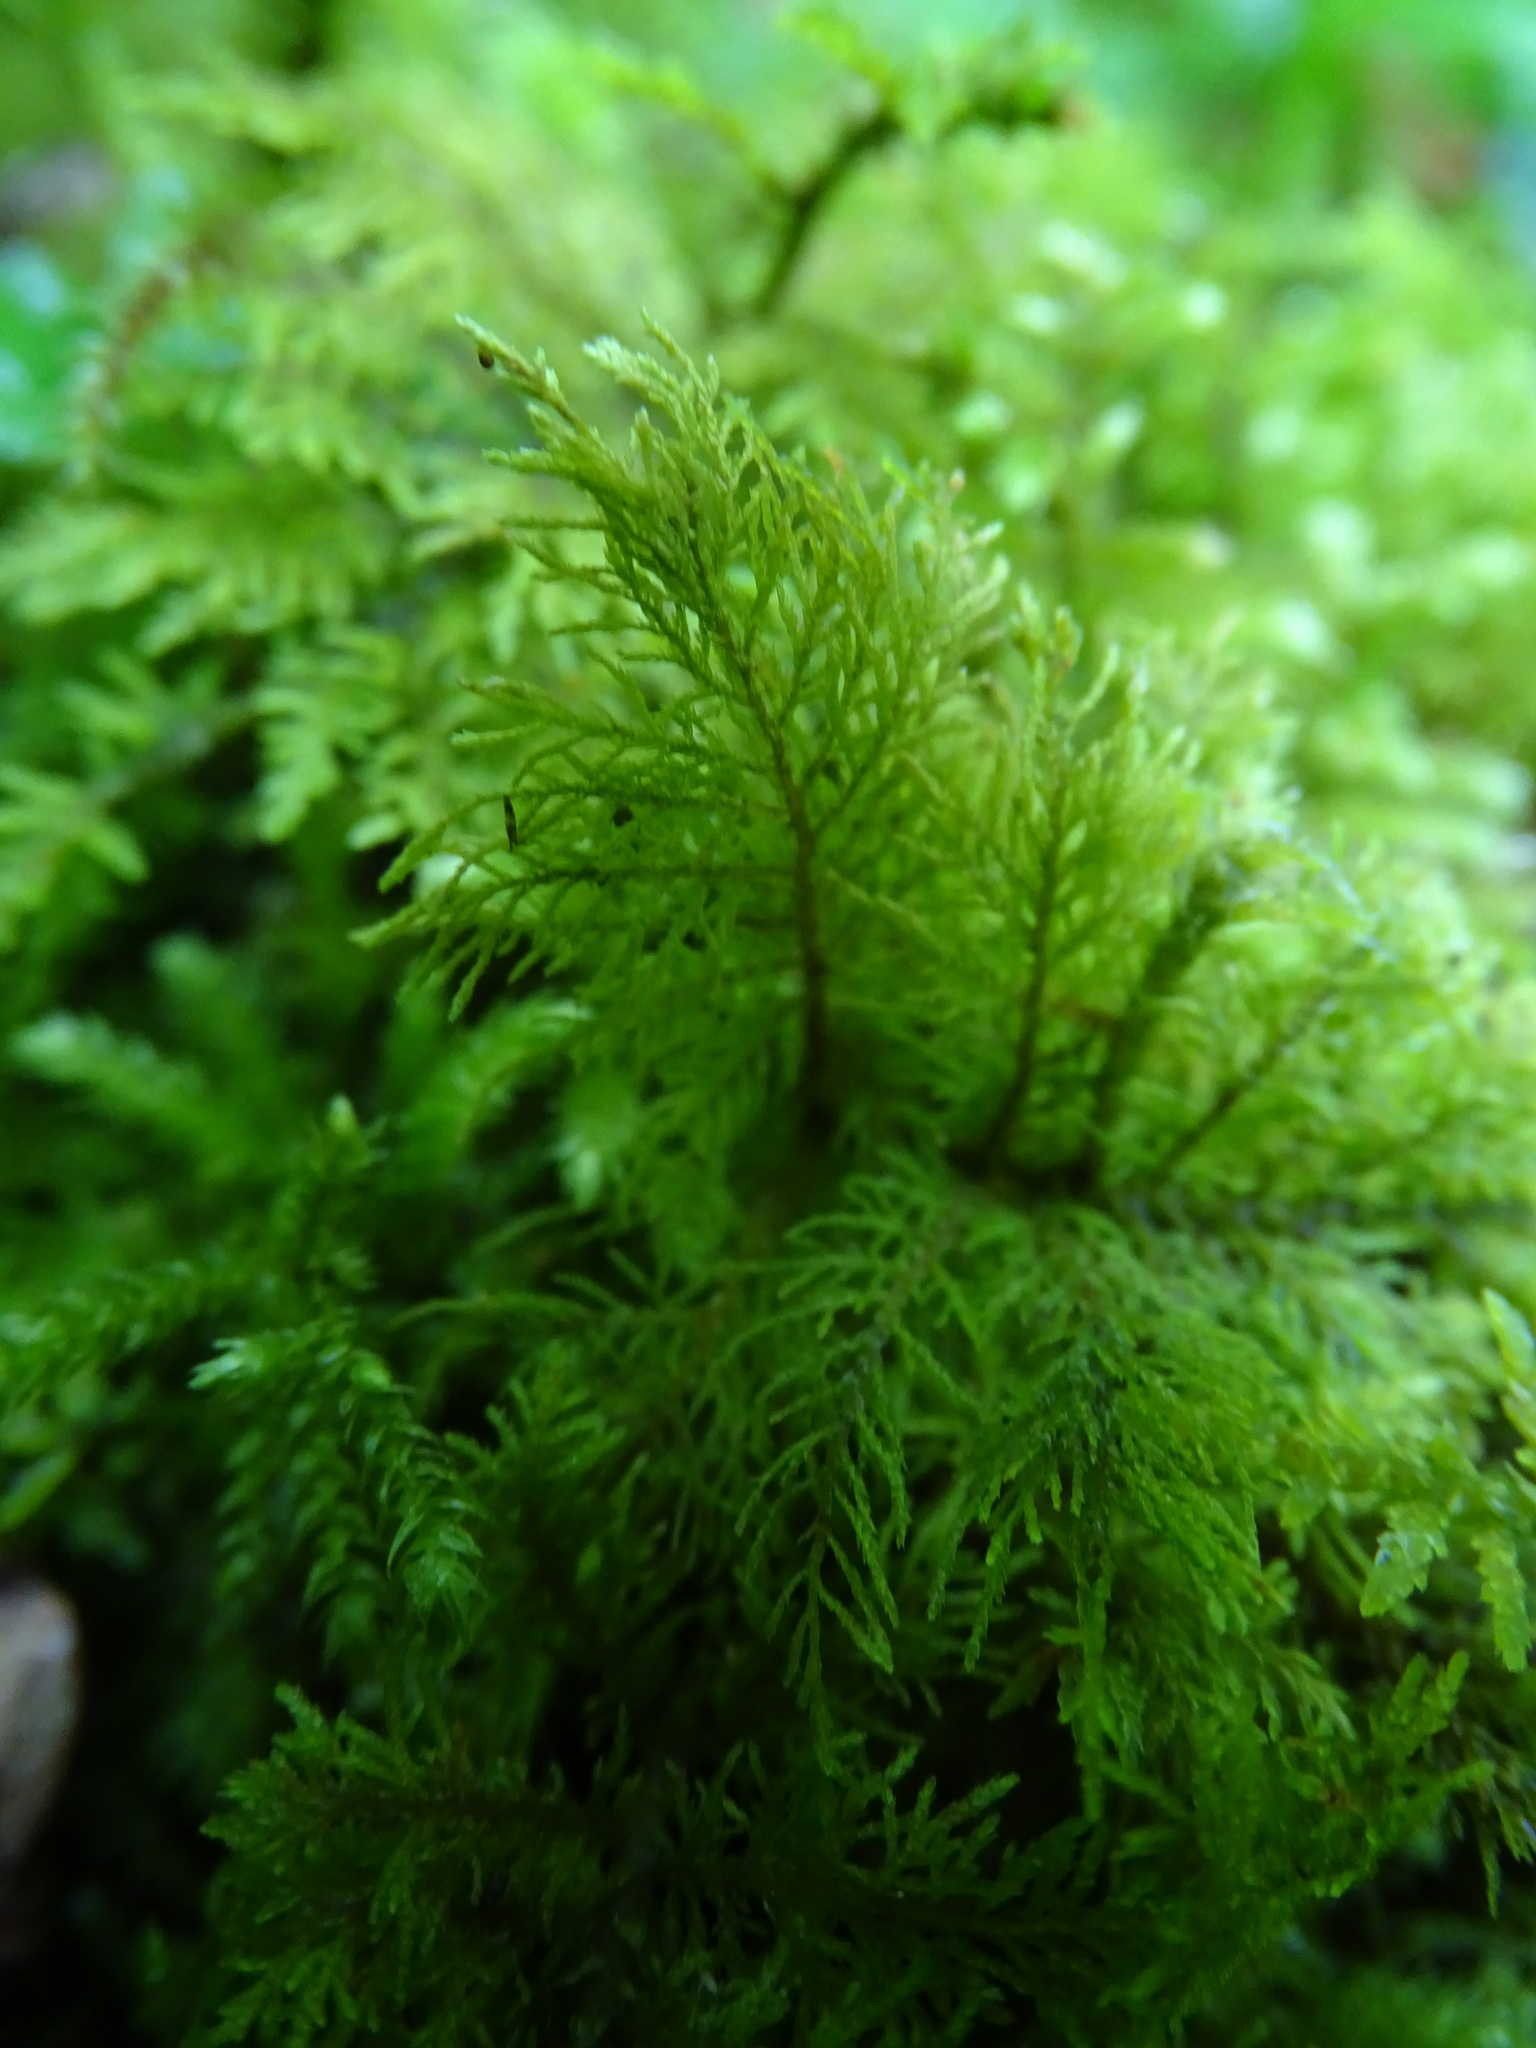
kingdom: Plantae
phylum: Bryophyta
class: Bryopsida
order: Hypnales
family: Thuidiaceae
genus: Thuidium
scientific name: Thuidium tamariscinum
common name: Common tamarisk-moss
